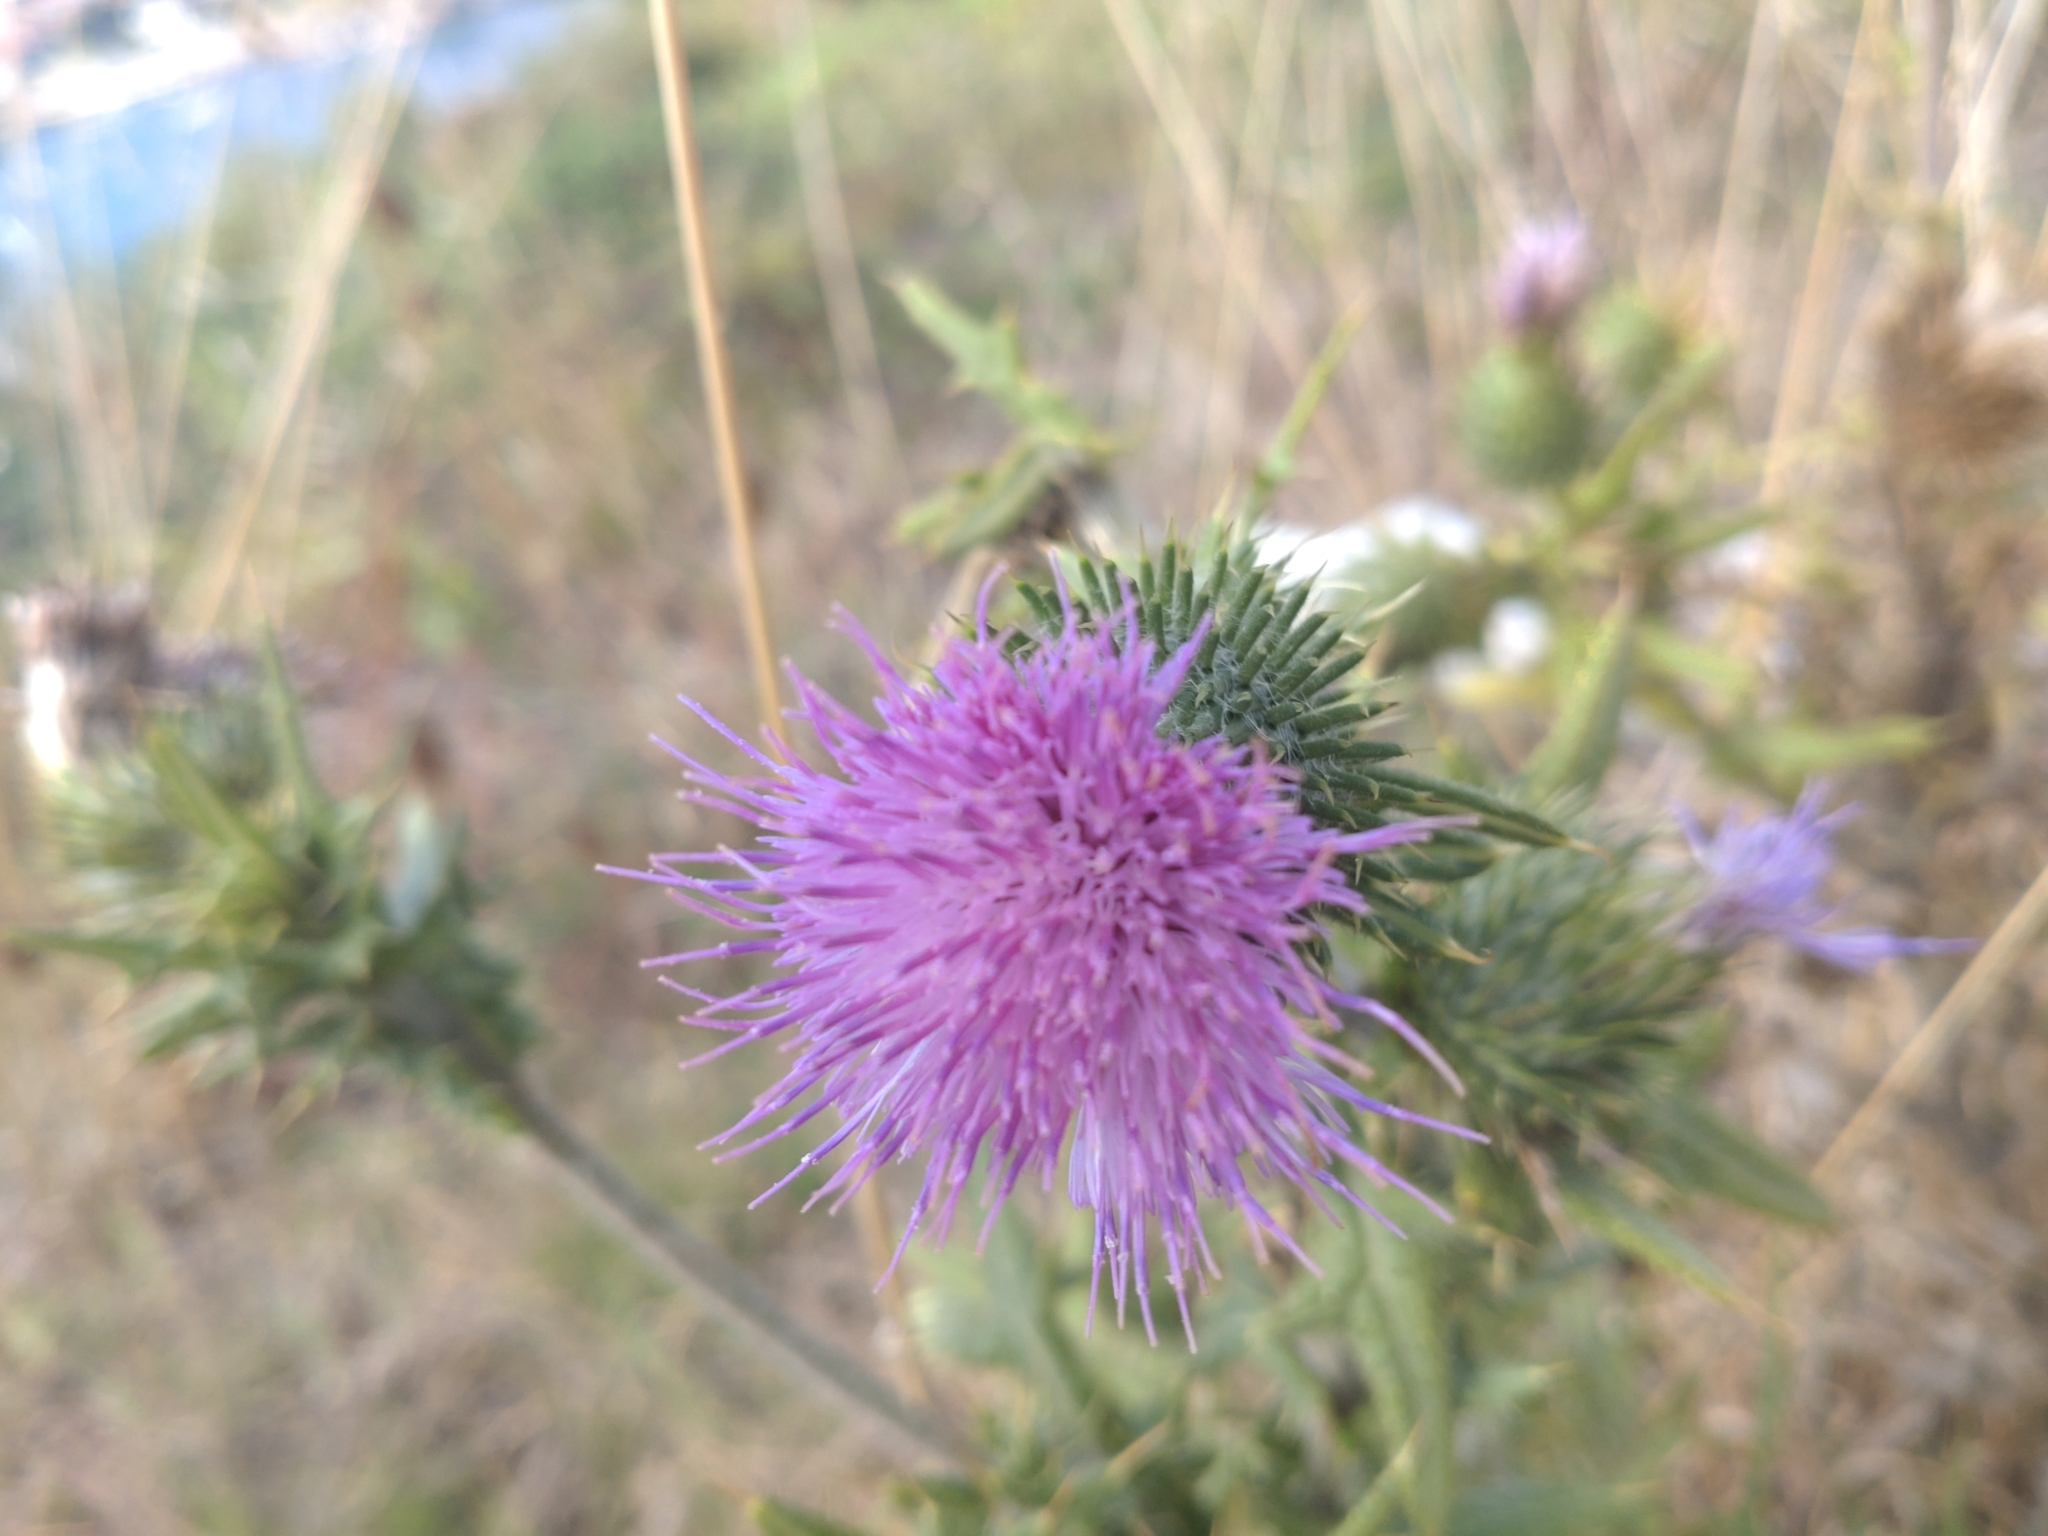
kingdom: Plantae
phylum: Tracheophyta
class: Magnoliopsida
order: Asterales
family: Asteraceae
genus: Cirsium
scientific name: Cirsium vulgare
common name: Bull thistle
